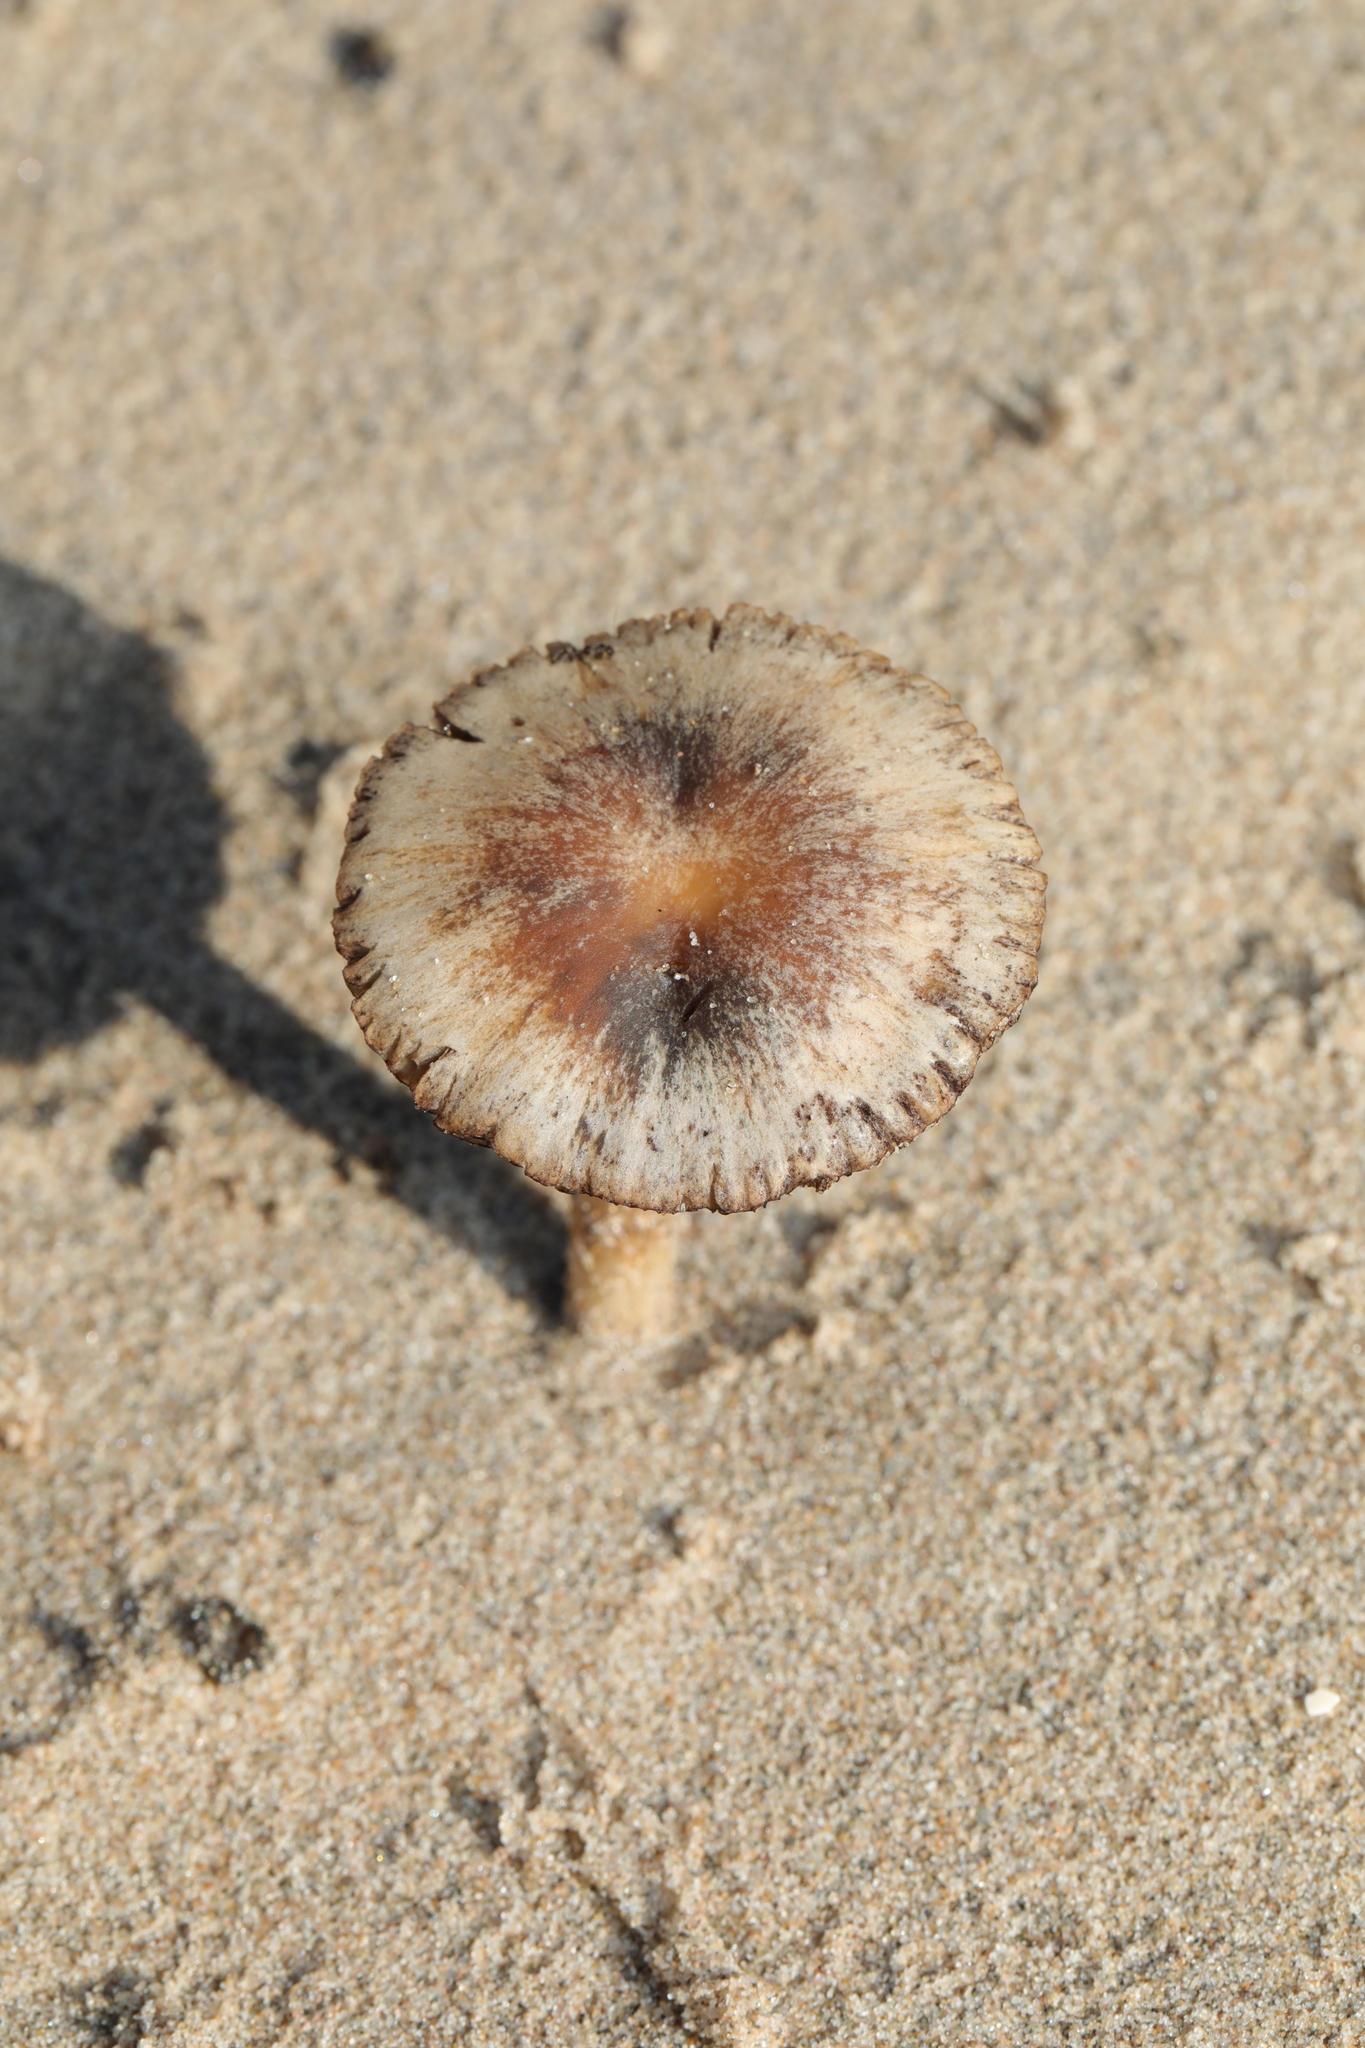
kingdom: Fungi
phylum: Basidiomycota
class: Agaricomycetes
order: Agaricales
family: Psathyrellaceae
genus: Psathyrella
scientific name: Psathyrella ammophila
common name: Dune brittlestem
